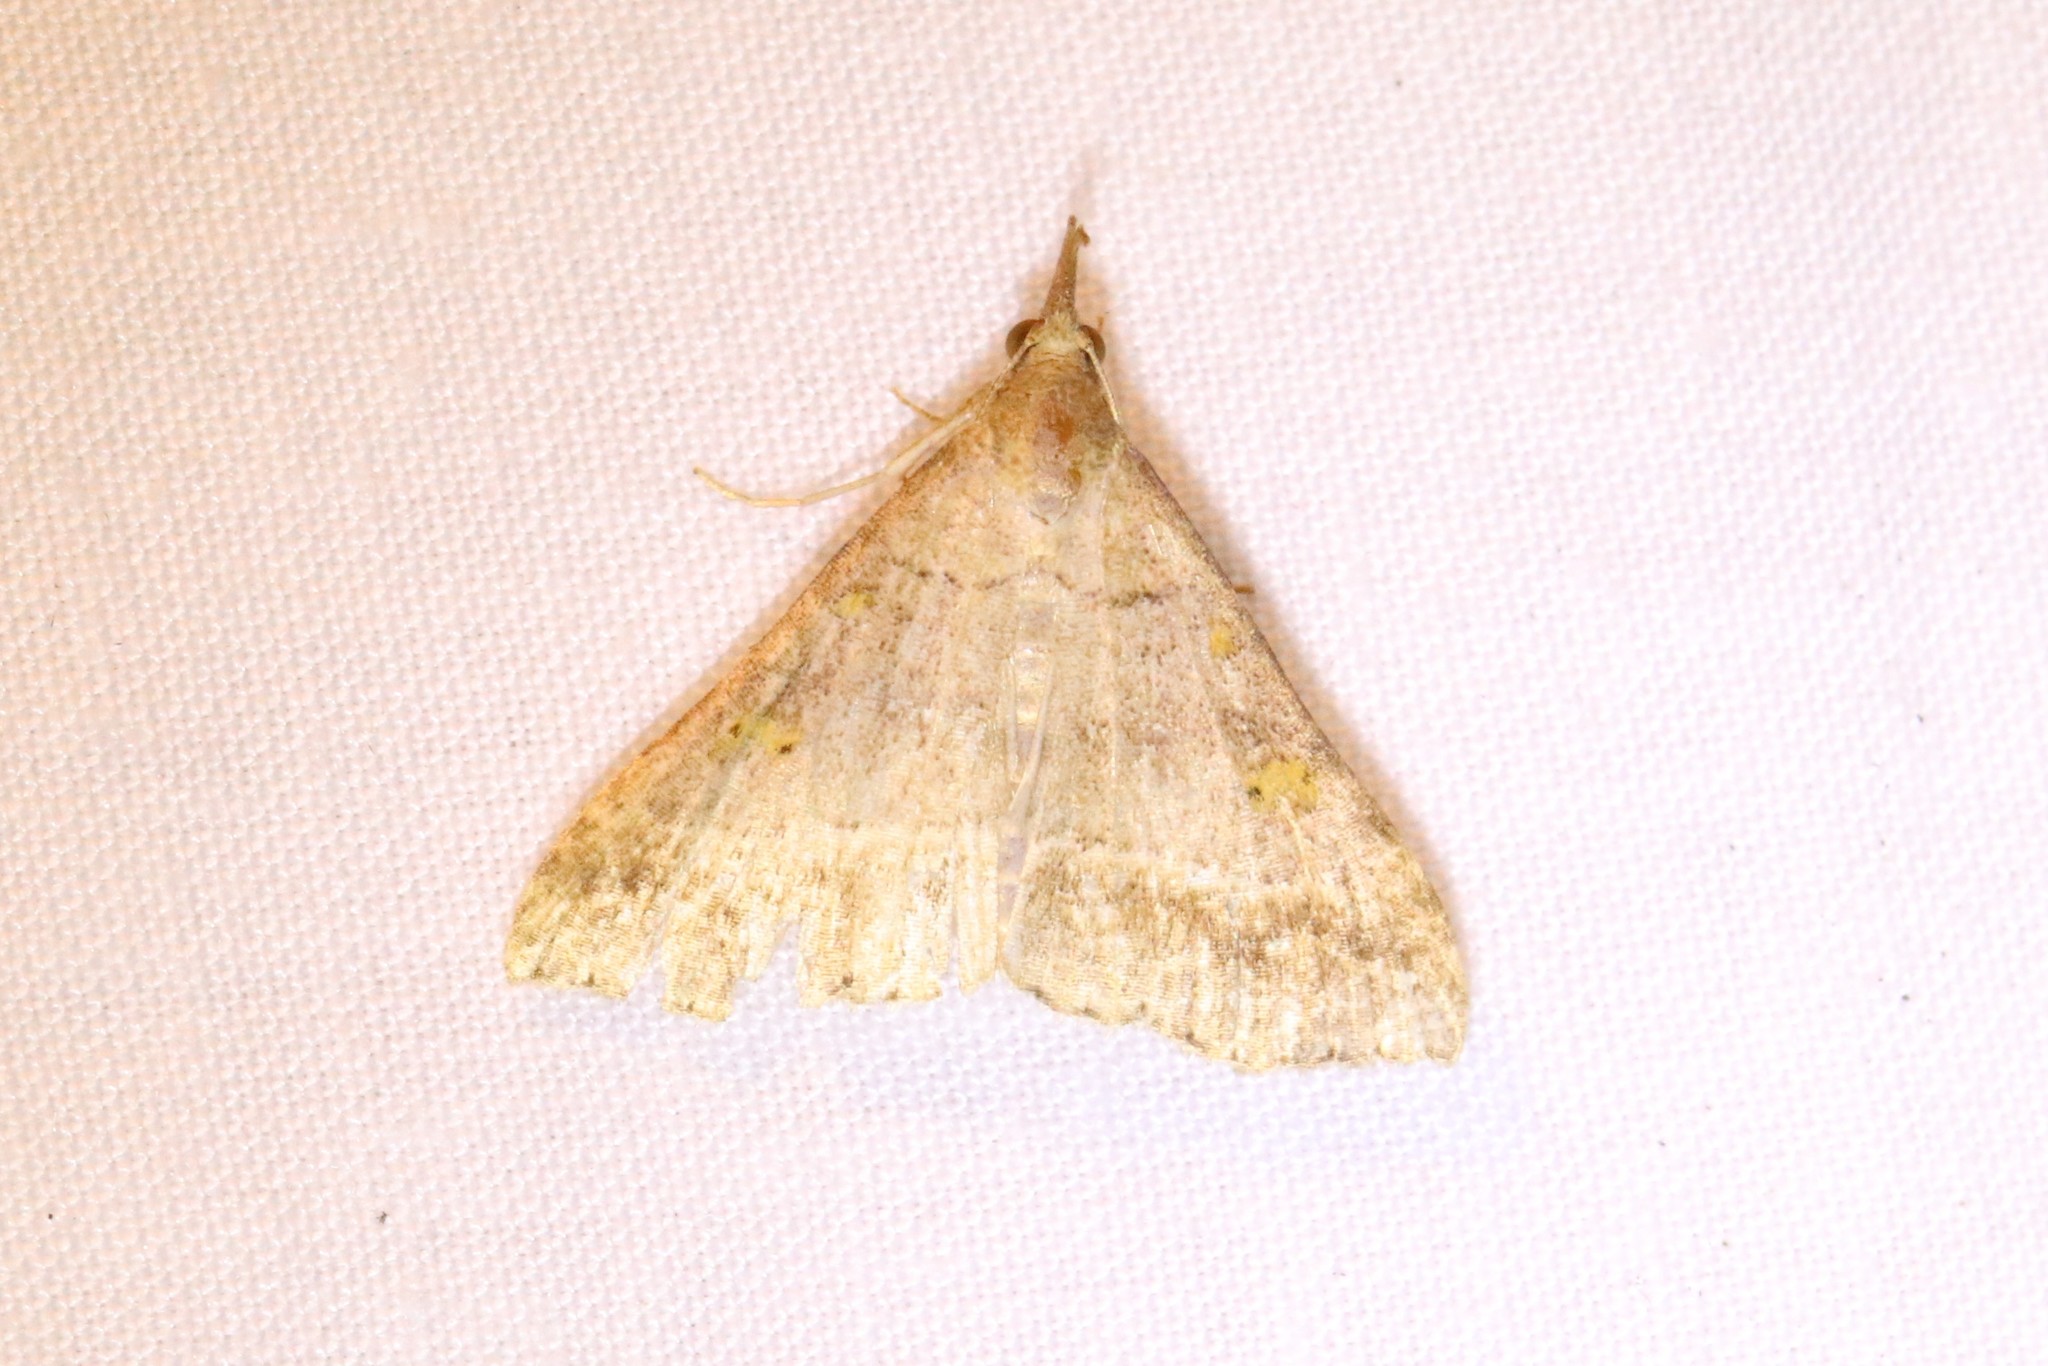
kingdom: Animalia
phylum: Arthropoda
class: Insecta
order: Lepidoptera
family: Erebidae
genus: Renia
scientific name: Renia flavipunctalis
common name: Yellow-spotted renia moth
